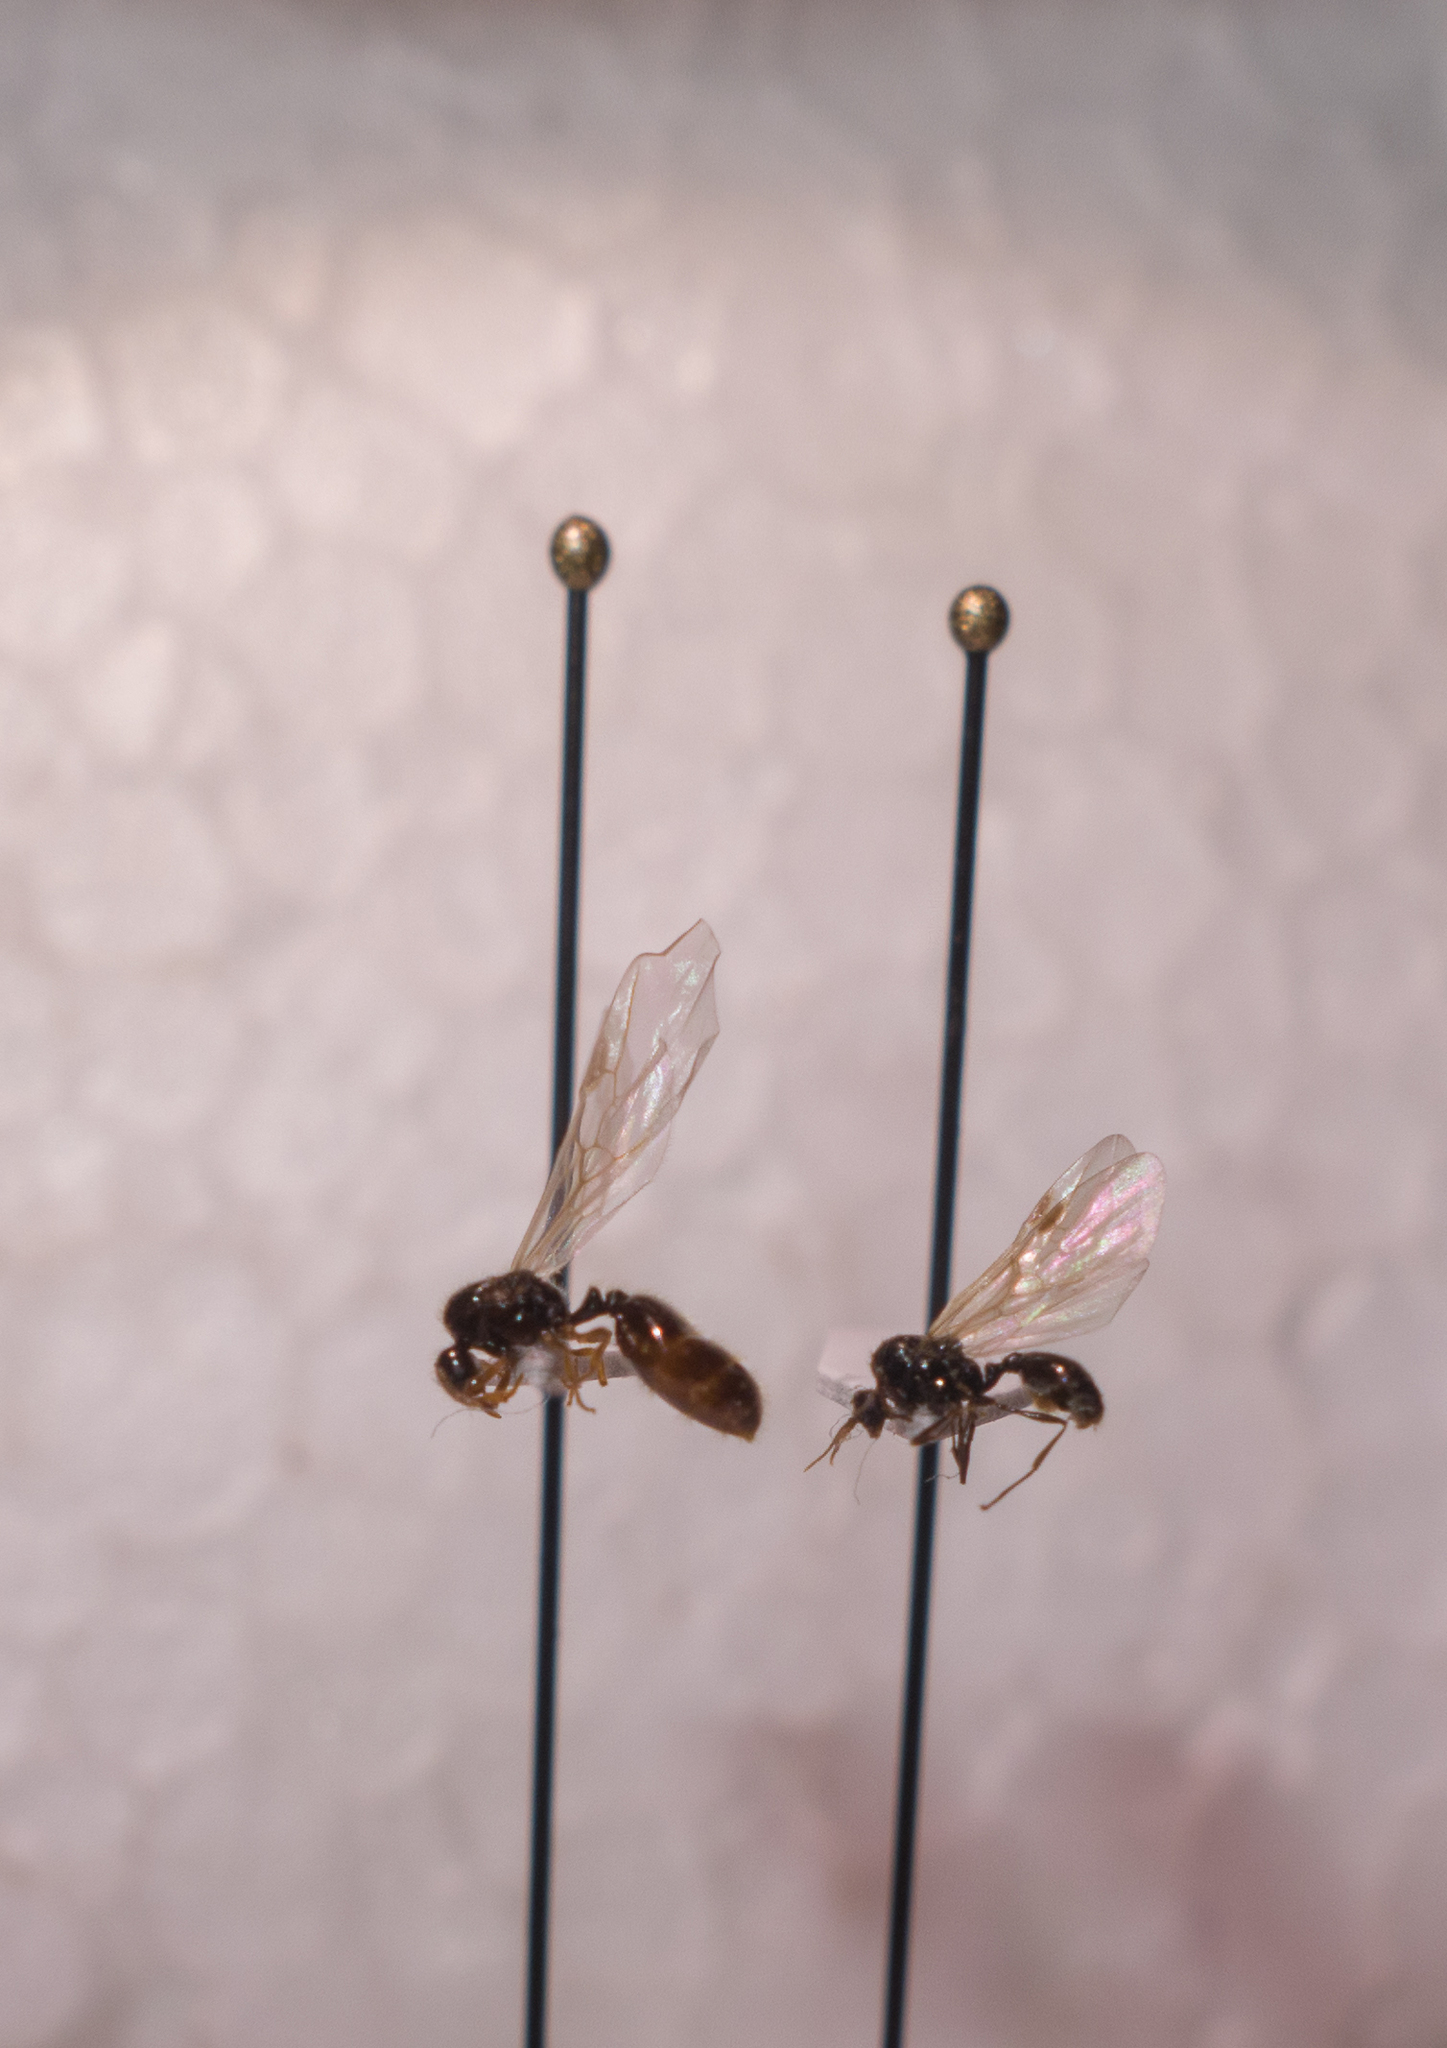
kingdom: Animalia
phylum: Arthropoda
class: Insecta
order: Hymenoptera
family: Formicidae
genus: Solenopsis
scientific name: Solenopsis fugax
